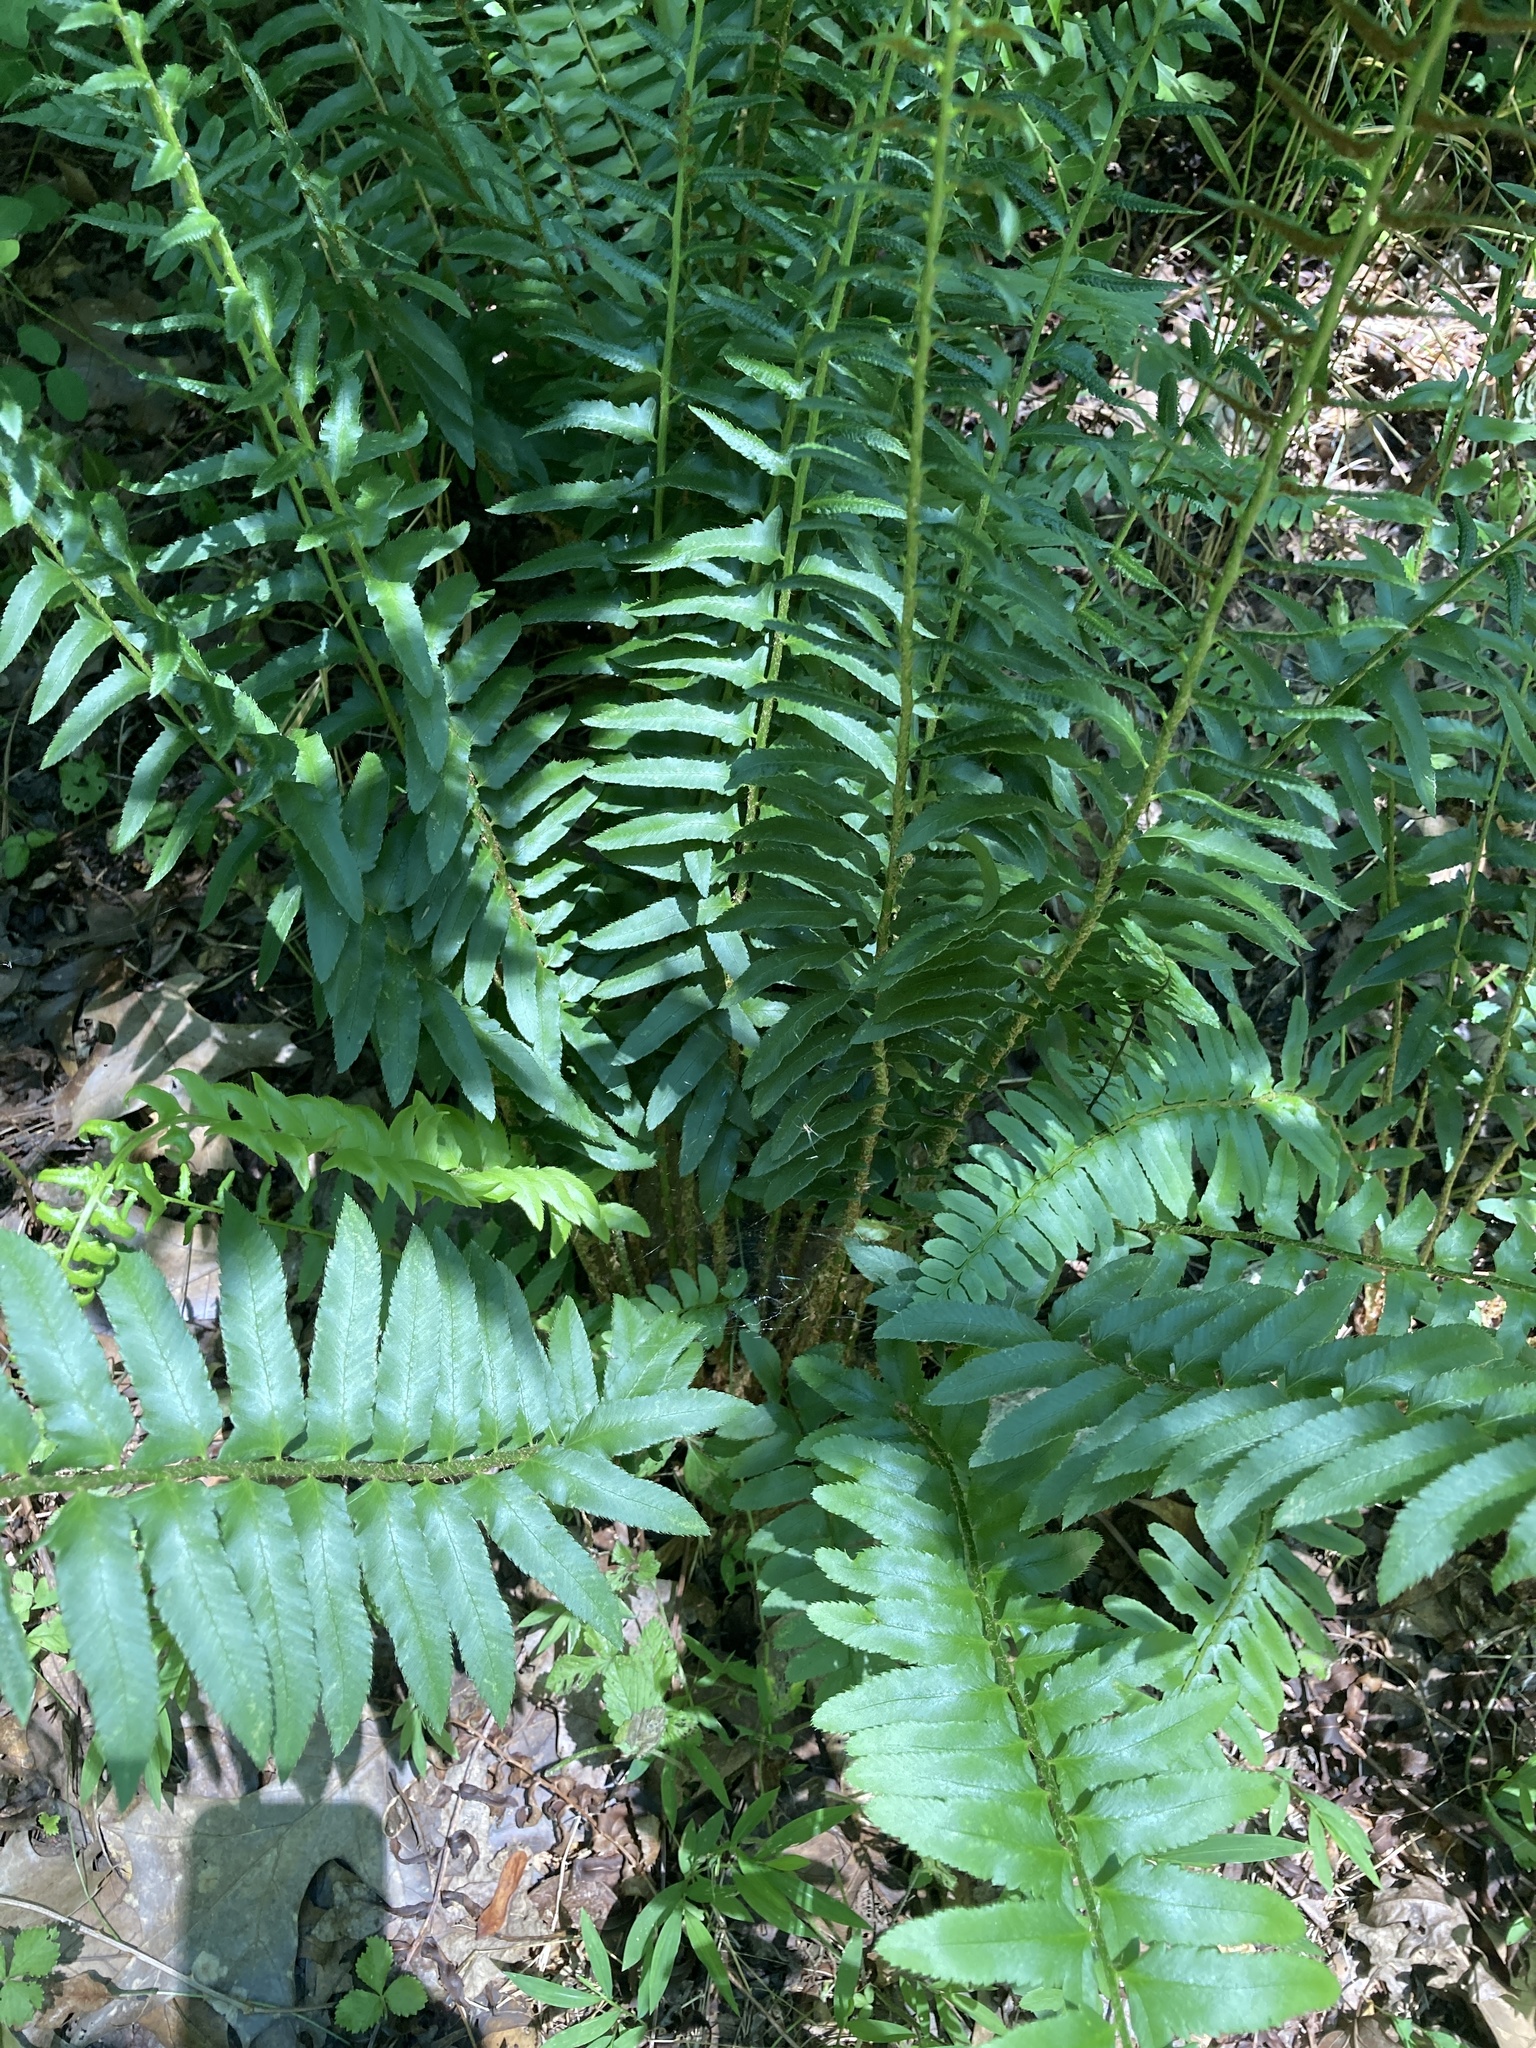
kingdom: Plantae
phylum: Tracheophyta
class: Polypodiopsida
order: Polypodiales
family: Dryopteridaceae
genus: Polystichum
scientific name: Polystichum acrostichoides
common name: Christmas fern
